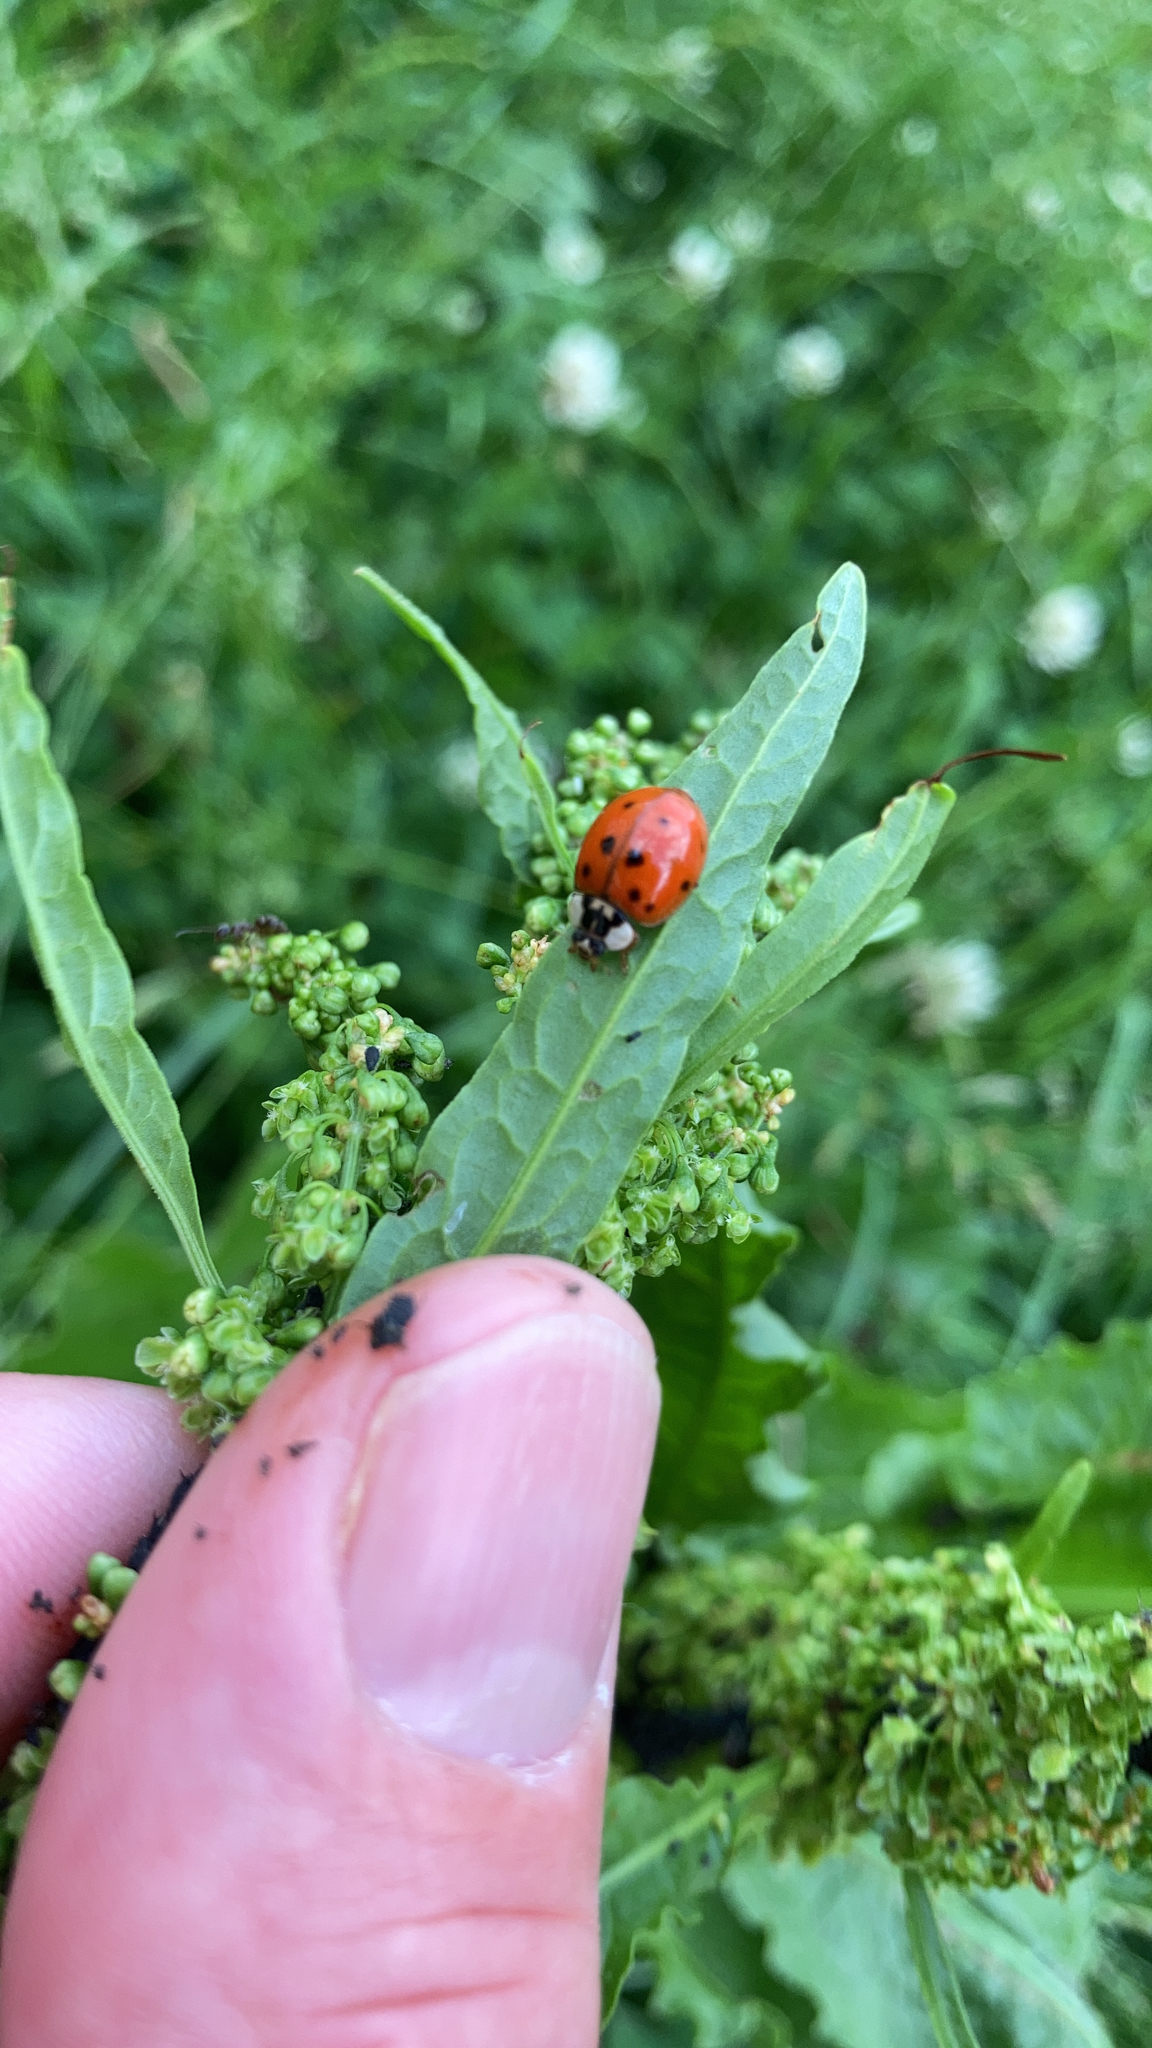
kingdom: Animalia
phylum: Arthropoda
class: Insecta
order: Coleoptera
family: Coccinellidae
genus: Harmonia
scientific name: Harmonia axyridis
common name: Harlequin ladybird
